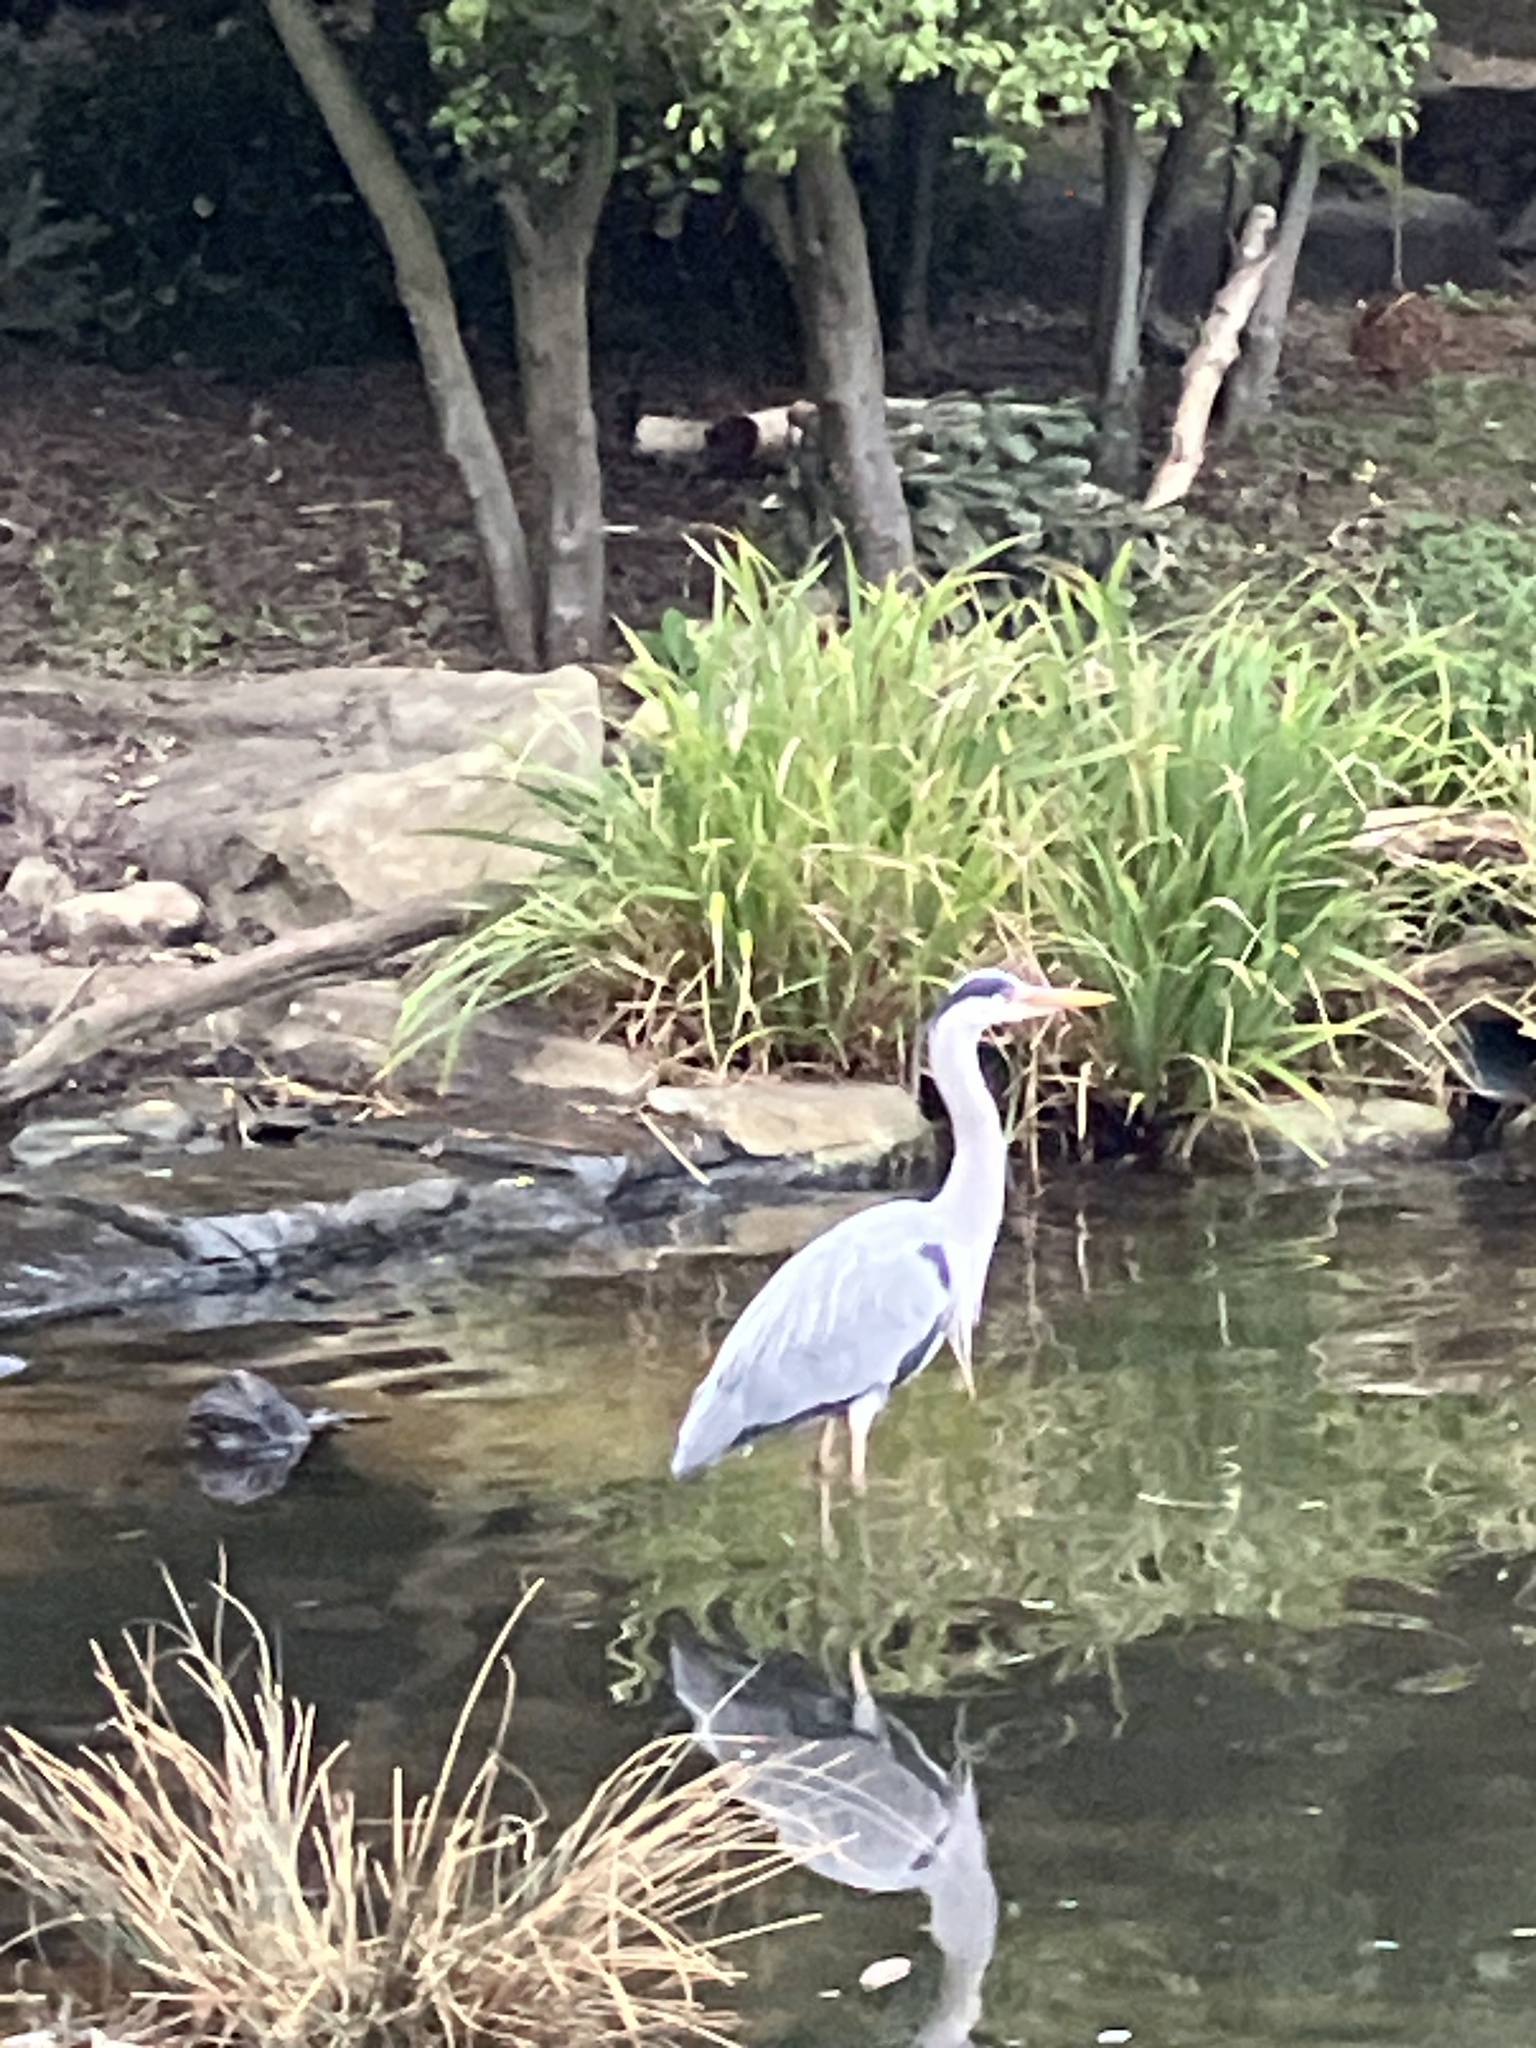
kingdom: Animalia
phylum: Chordata
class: Aves
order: Pelecaniformes
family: Ardeidae
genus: Ardea
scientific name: Ardea cinerea
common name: Grey heron
